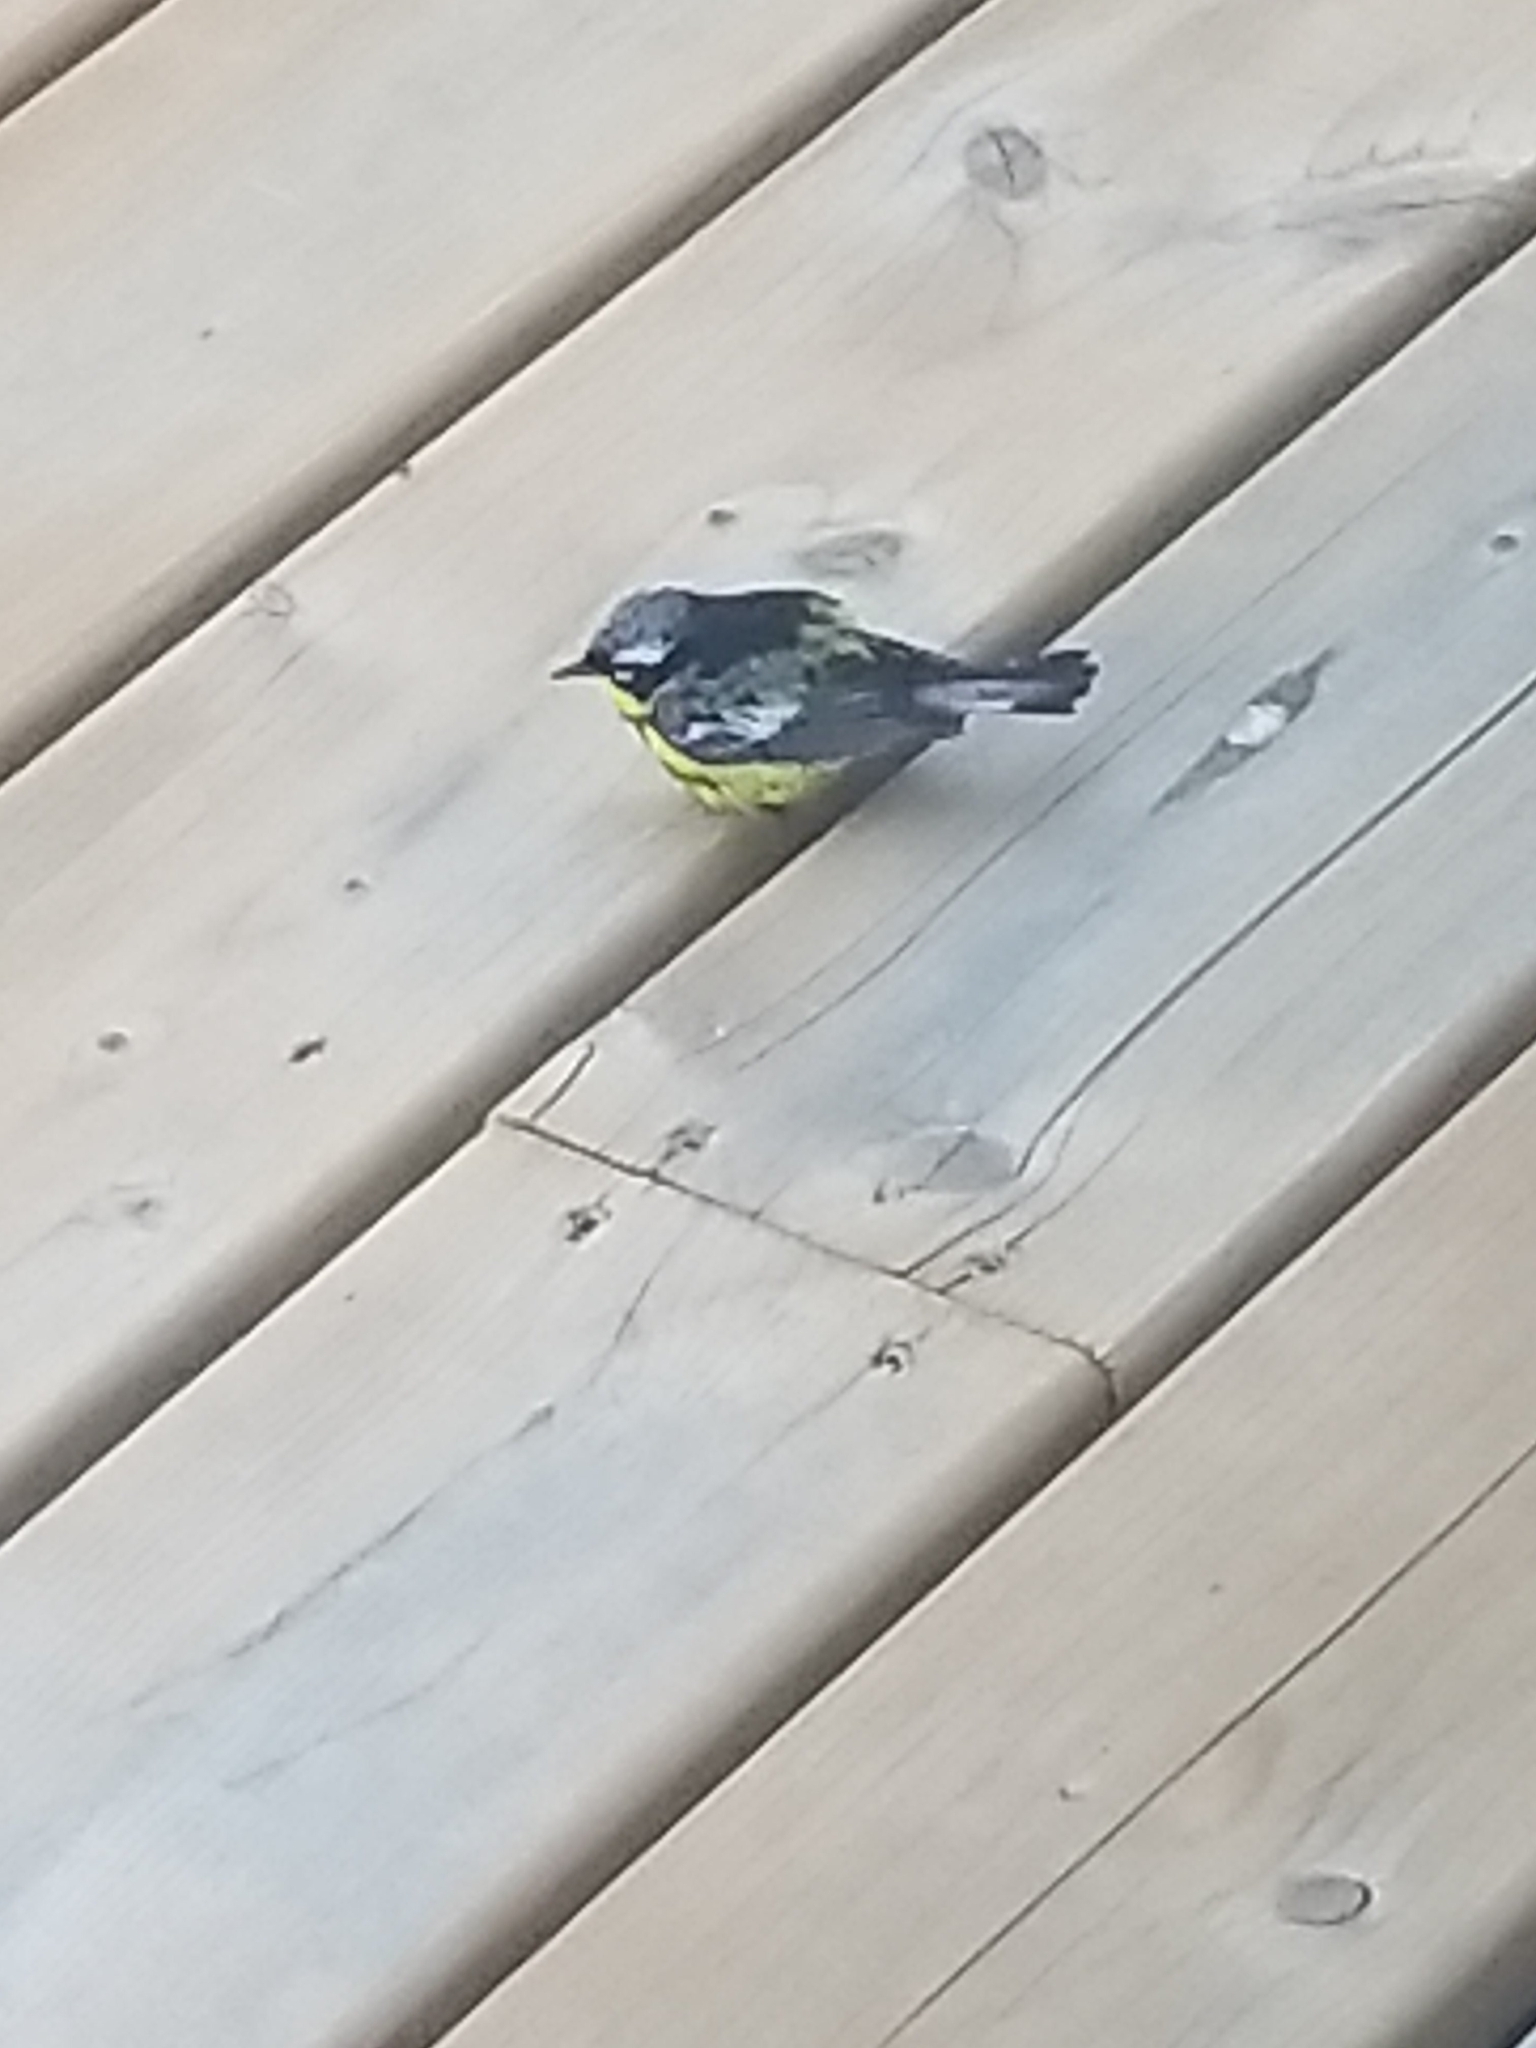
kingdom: Animalia
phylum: Chordata
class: Aves
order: Passeriformes
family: Parulidae
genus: Setophaga
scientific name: Setophaga magnolia
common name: Magnolia warbler
